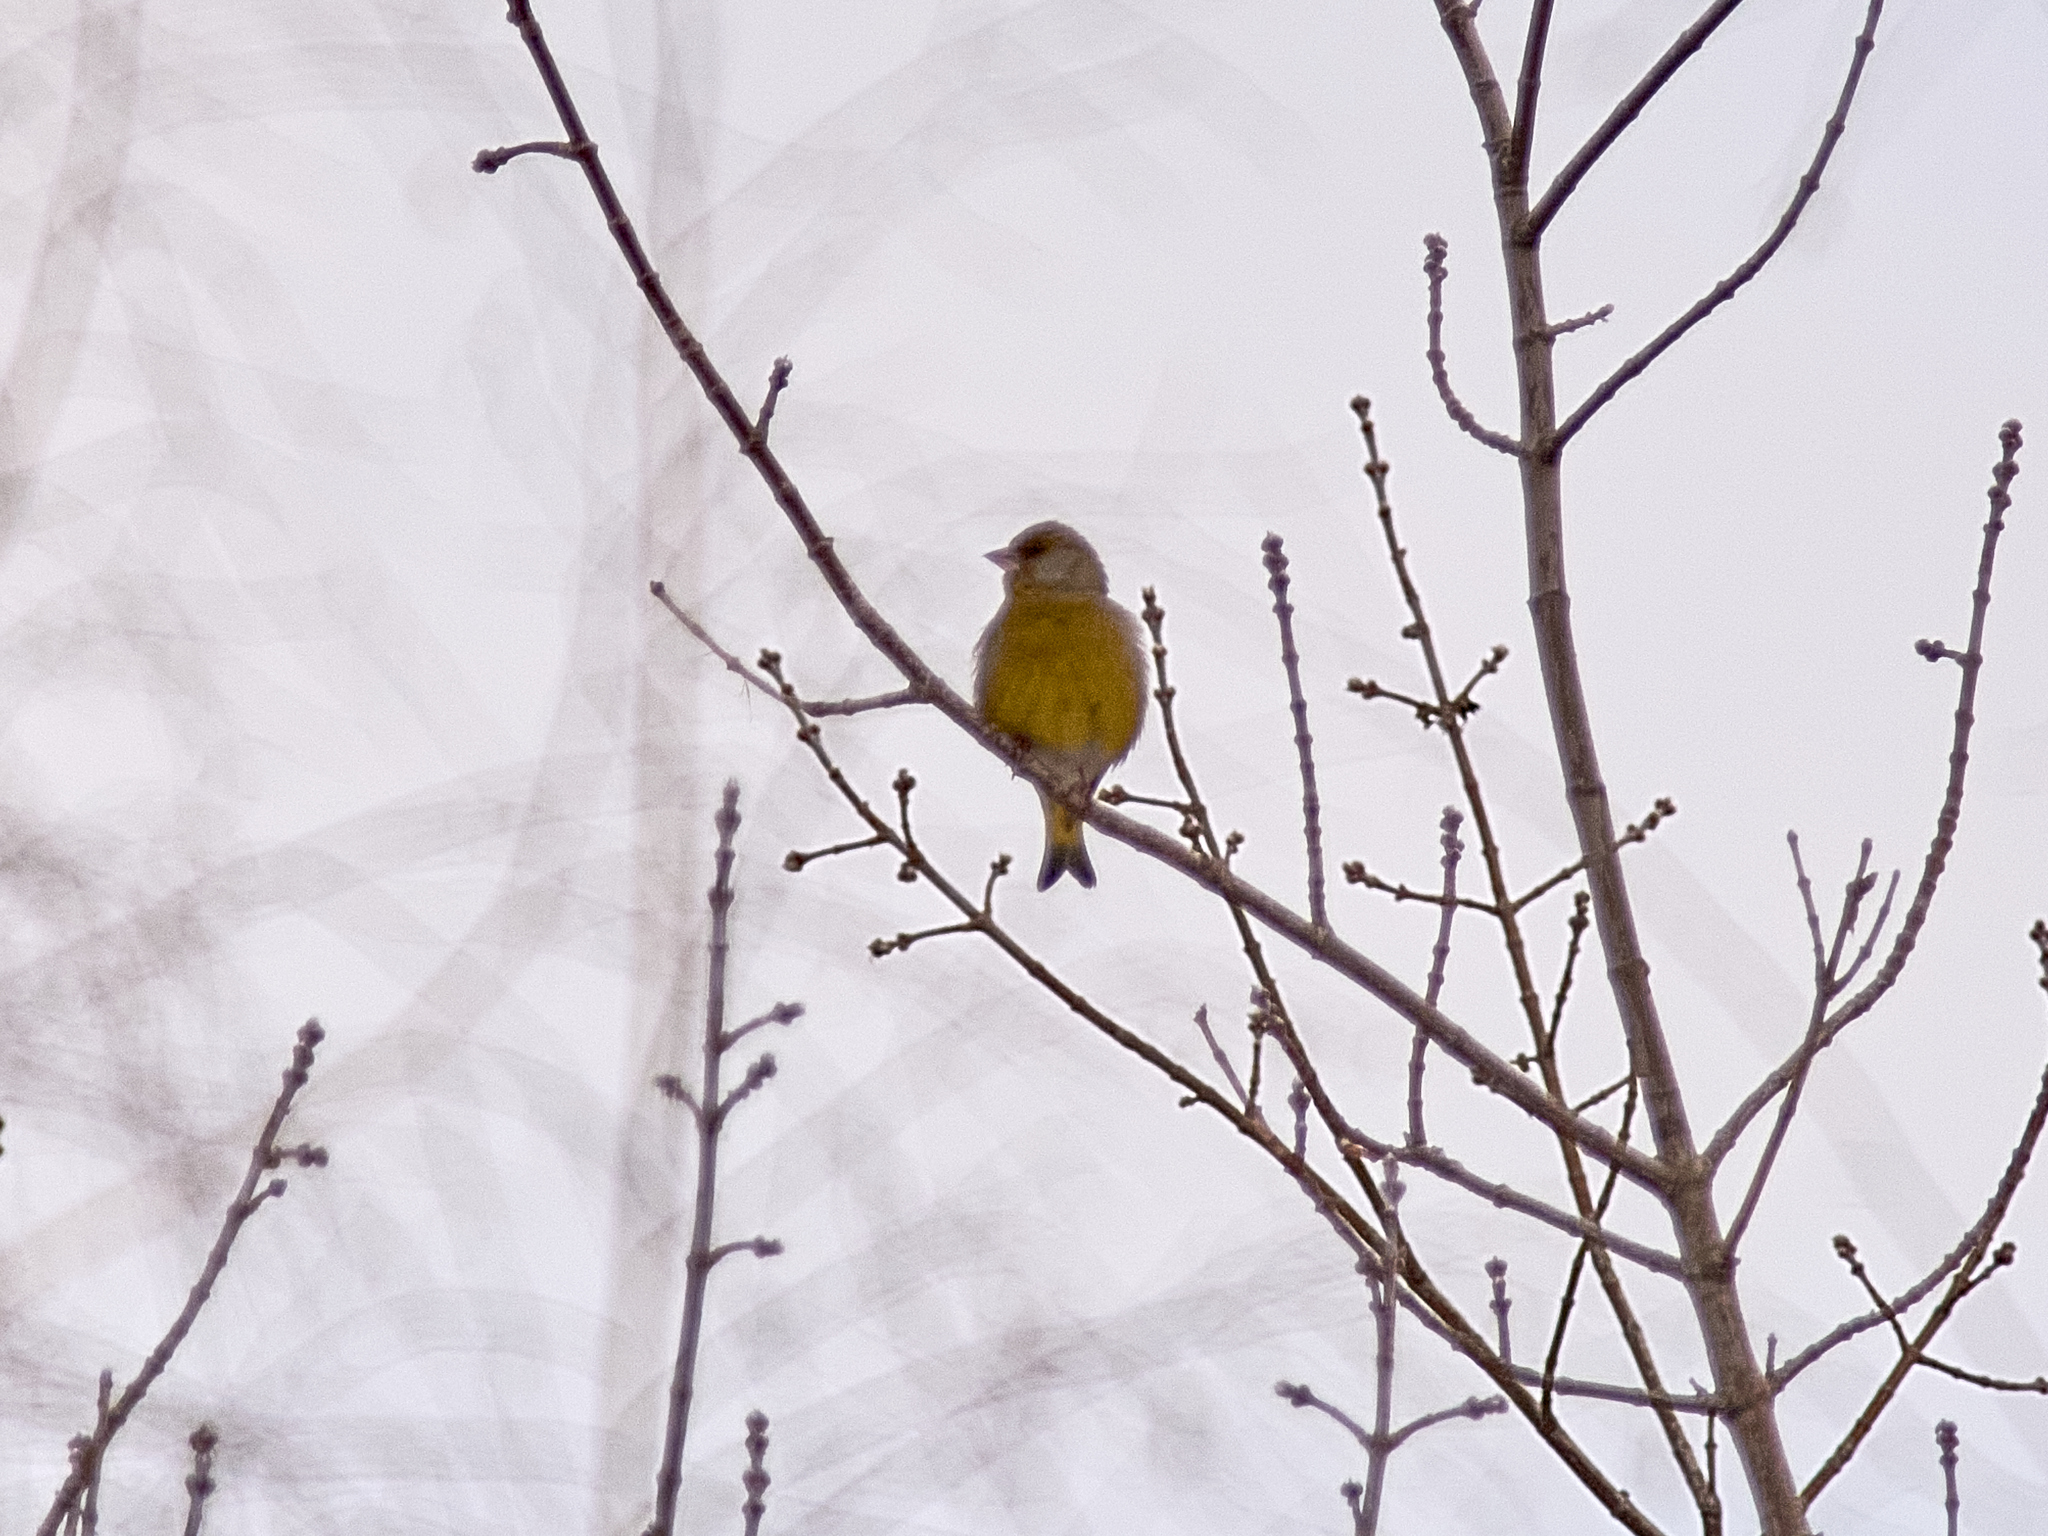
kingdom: Plantae
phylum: Tracheophyta
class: Liliopsida
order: Poales
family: Poaceae
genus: Chloris
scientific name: Chloris chloris
